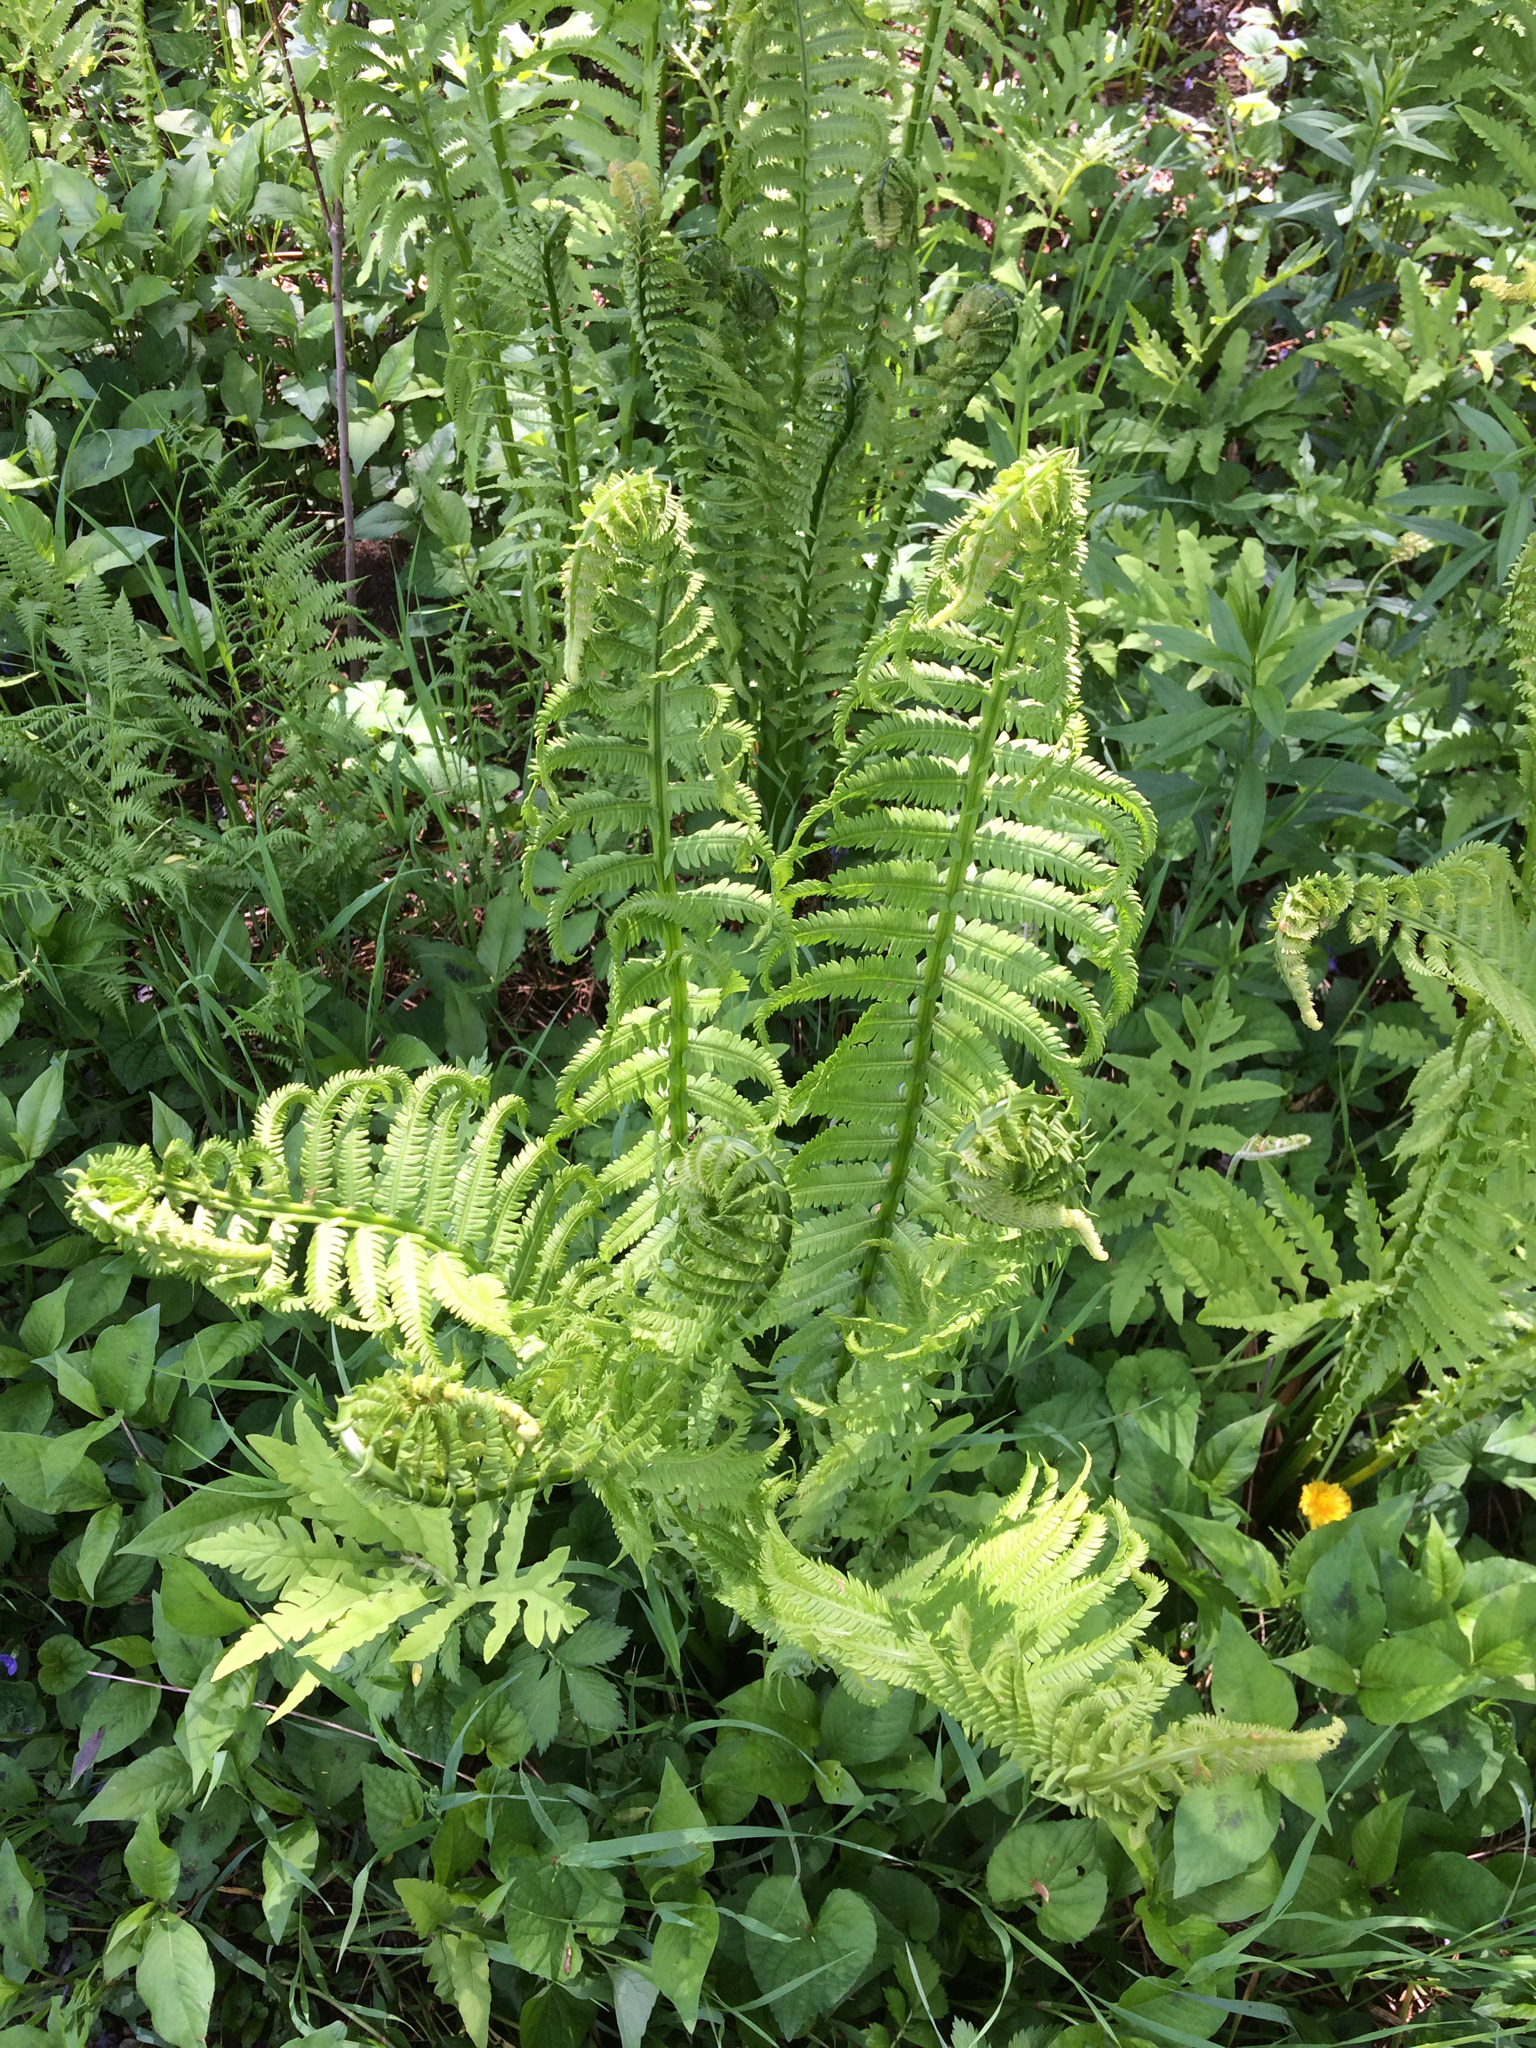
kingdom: Plantae
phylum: Tracheophyta
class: Polypodiopsida
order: Polypodiales
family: Onocleaceae
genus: Matteuccia
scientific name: Matteuccia struthiopteris
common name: Ostrich fern
